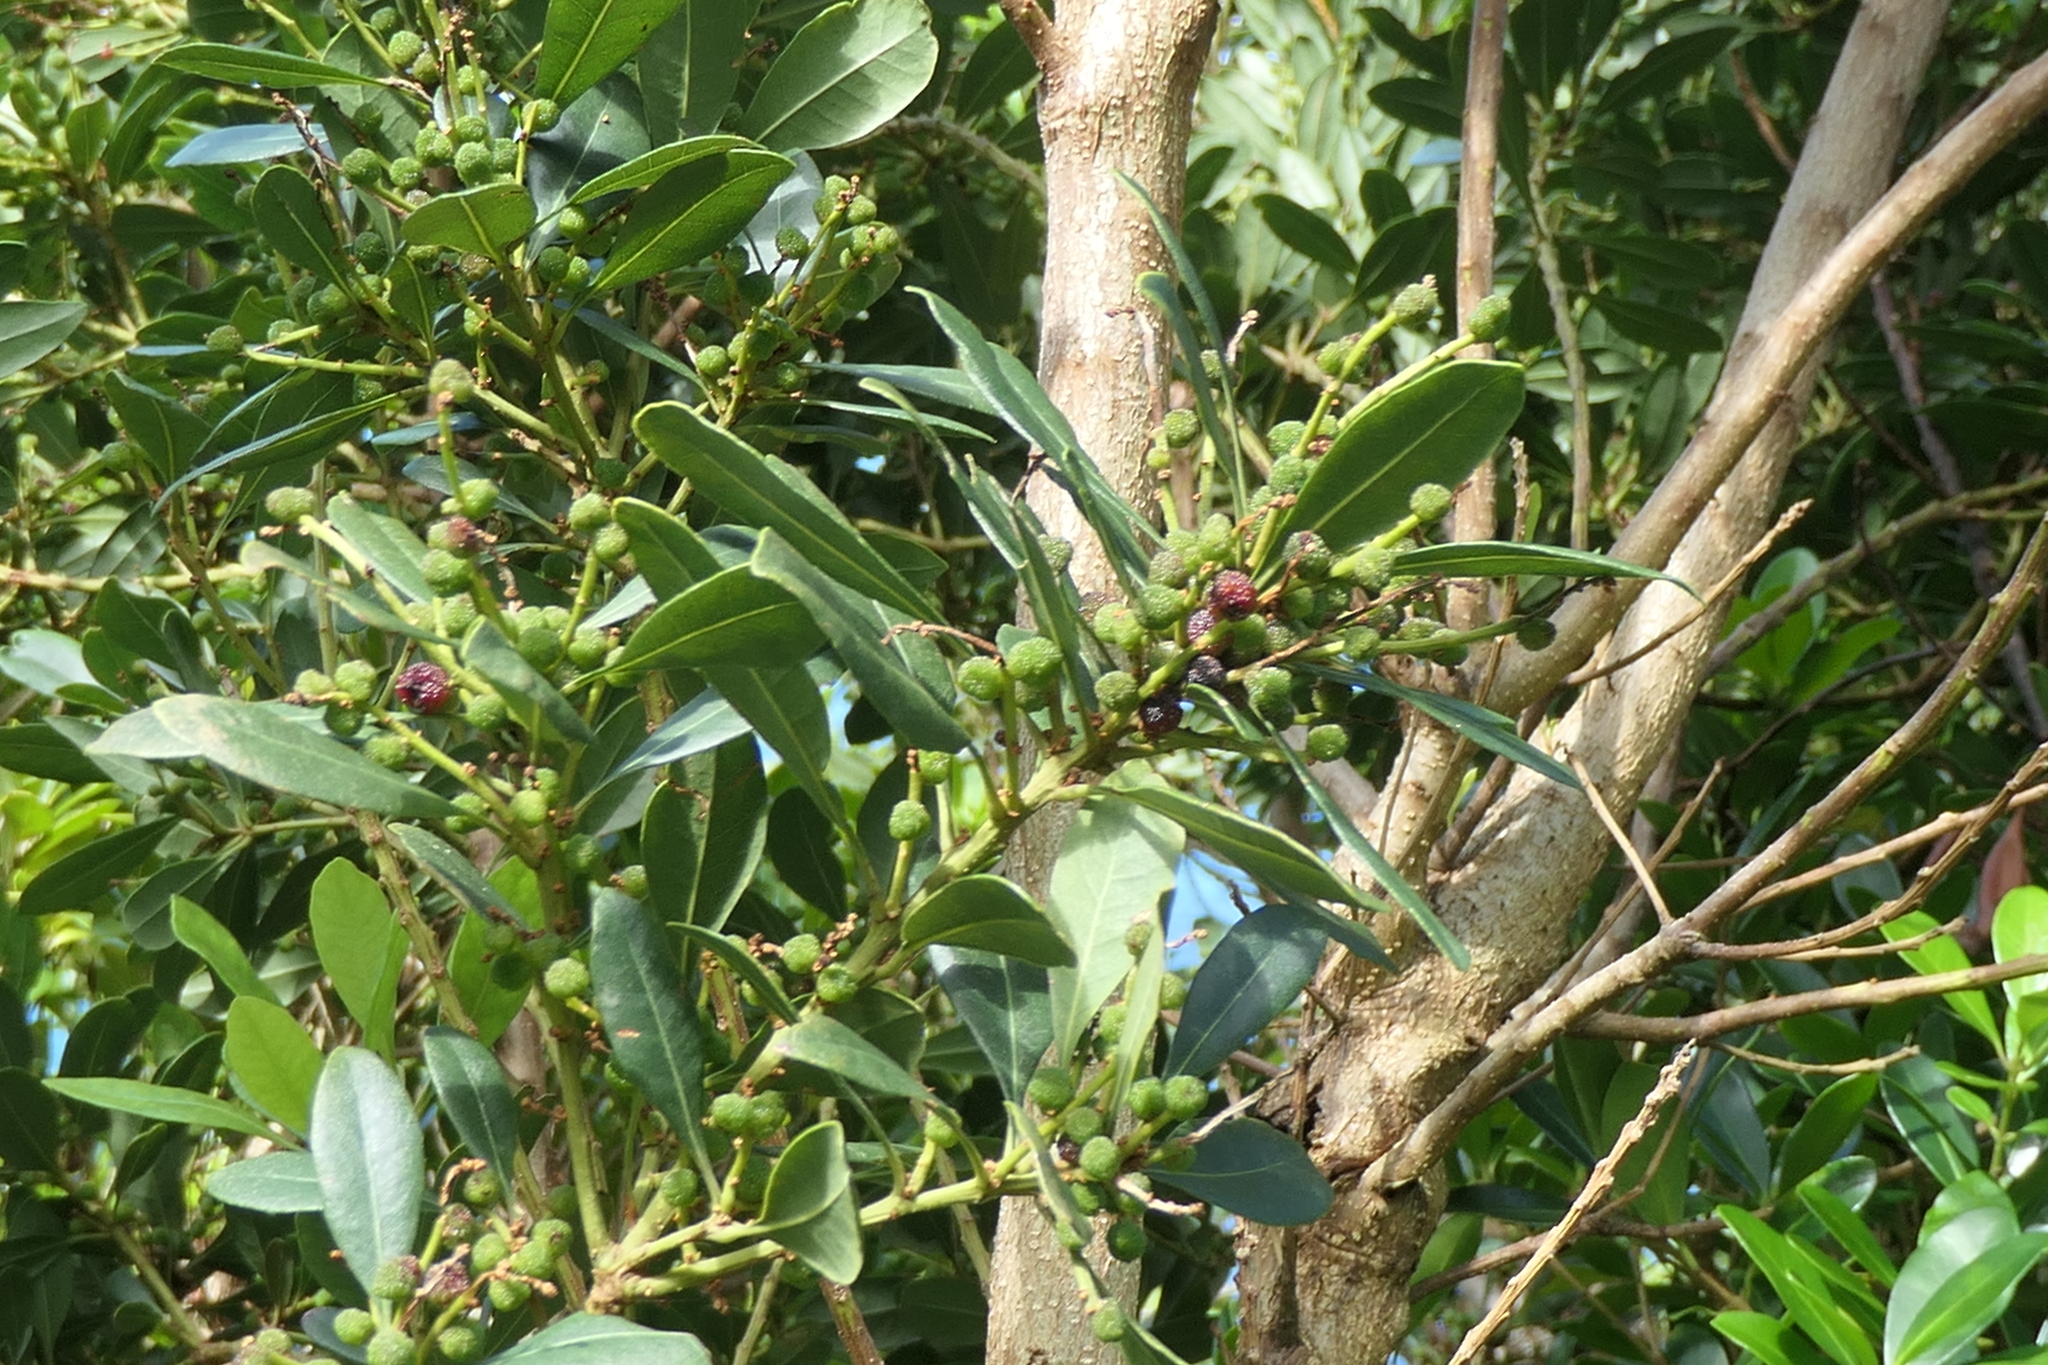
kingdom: Plantae
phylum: Tracheophyta
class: Magnoliopsida
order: Fagales
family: Myricaceae
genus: Morella
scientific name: Morella faya
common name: Firetree
